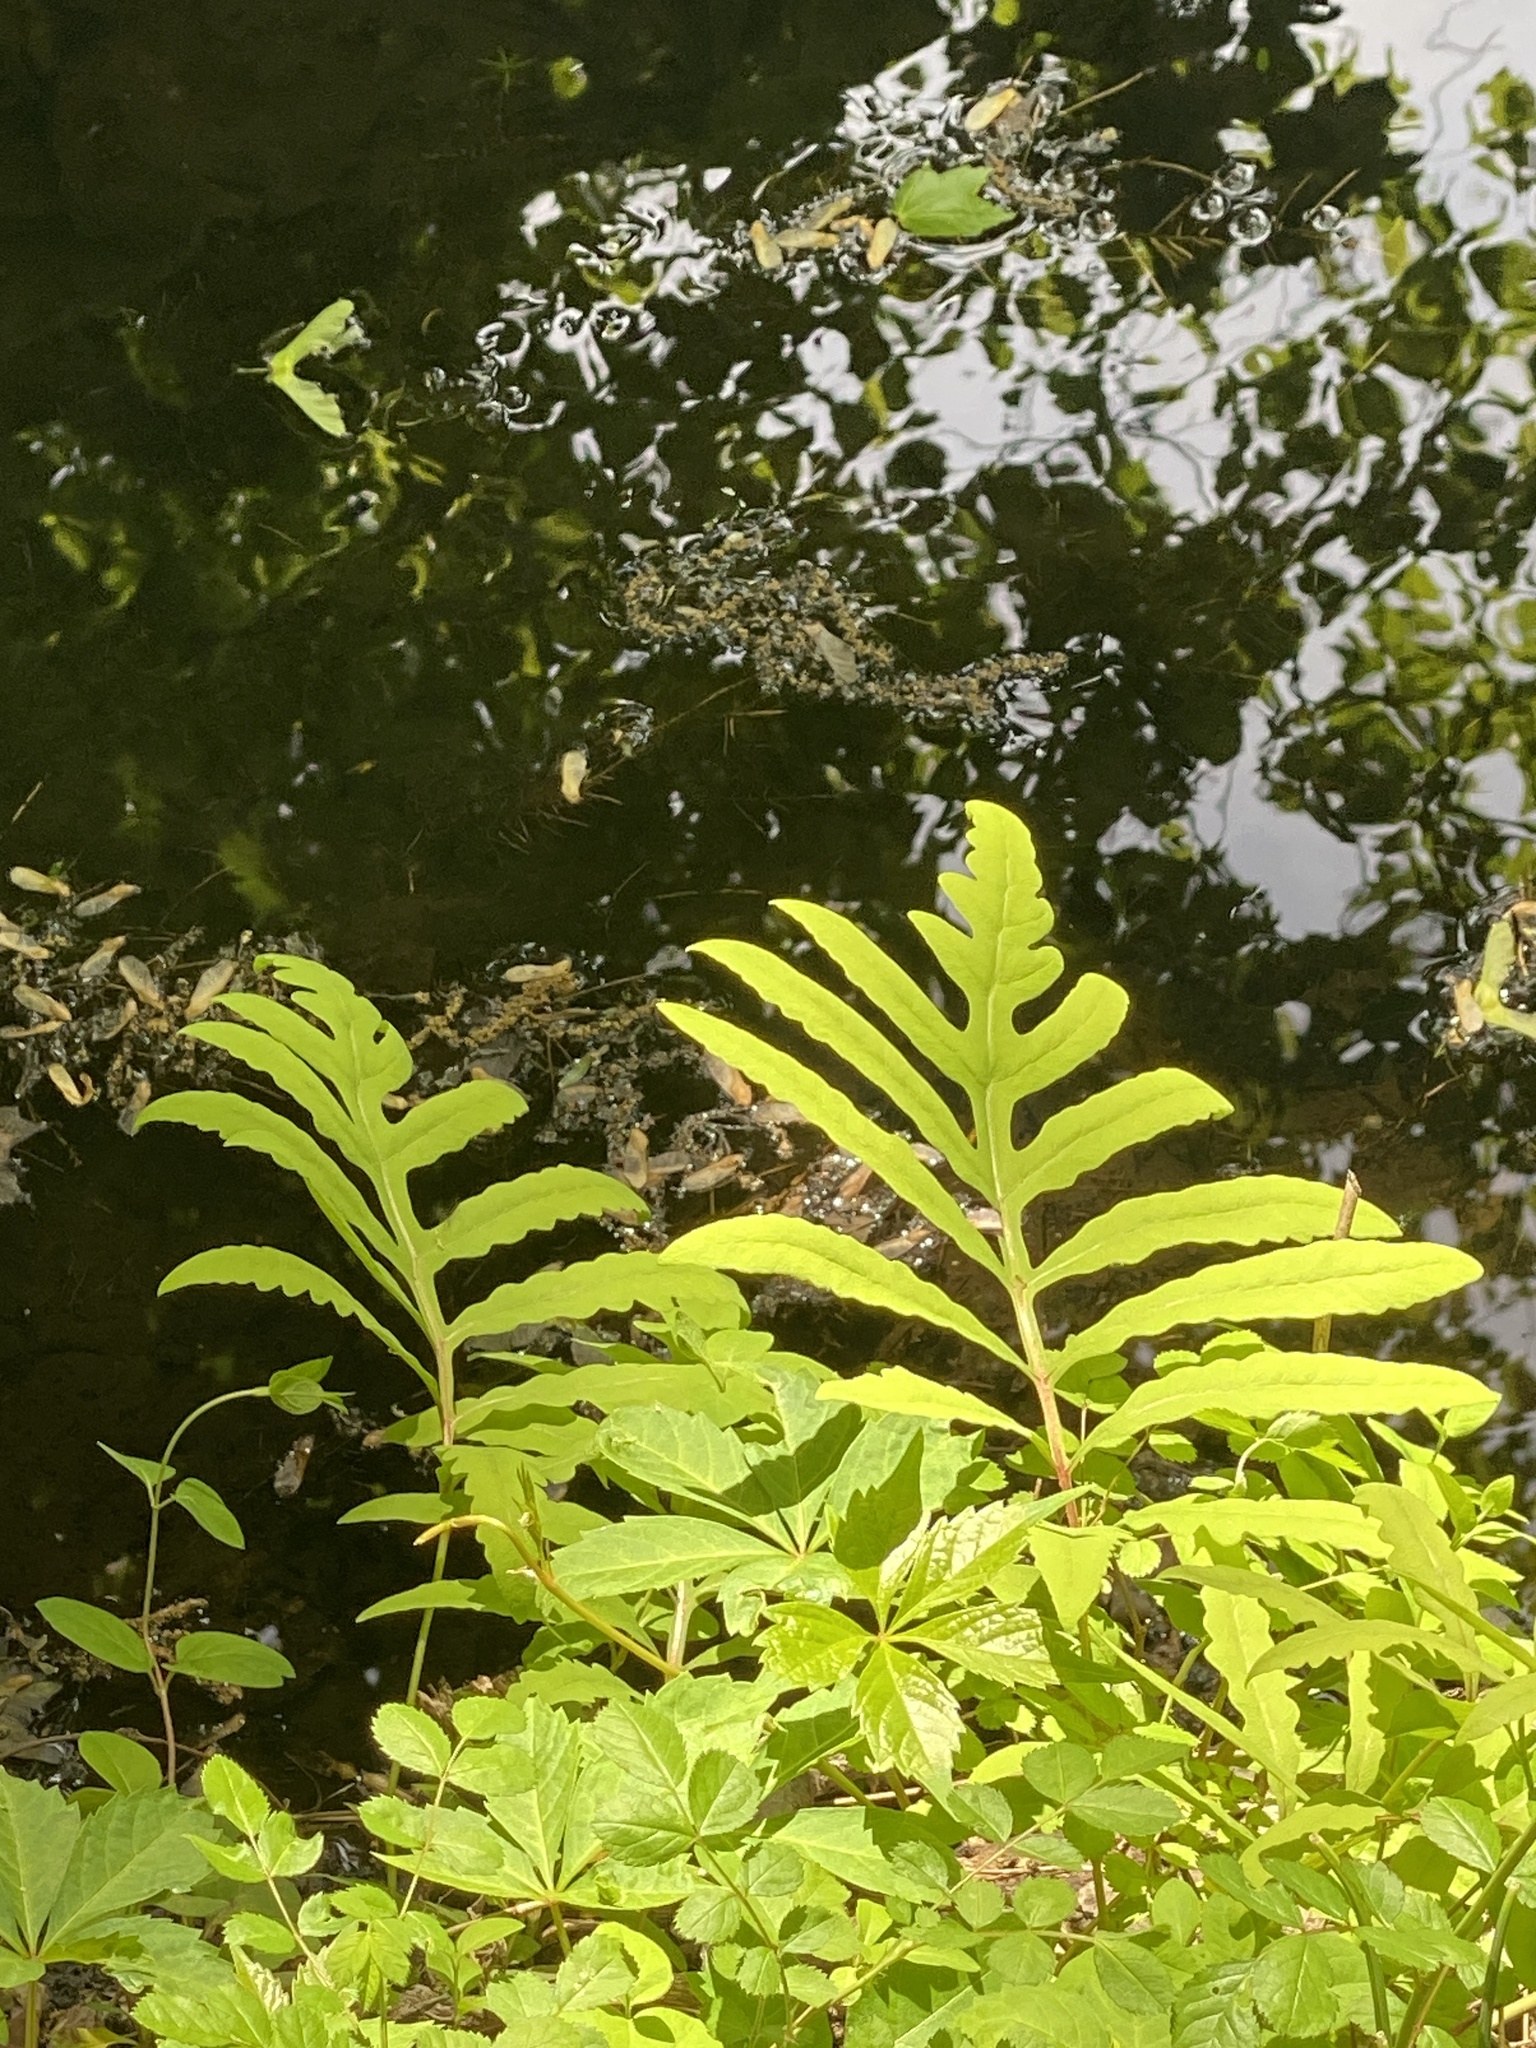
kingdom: Plantae
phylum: Tracheophyta
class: Polypodiopsida
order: Polypodiales
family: Onocleaceae
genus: Onoclea
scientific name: Onoclea sensibilis
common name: Sensitive fern
